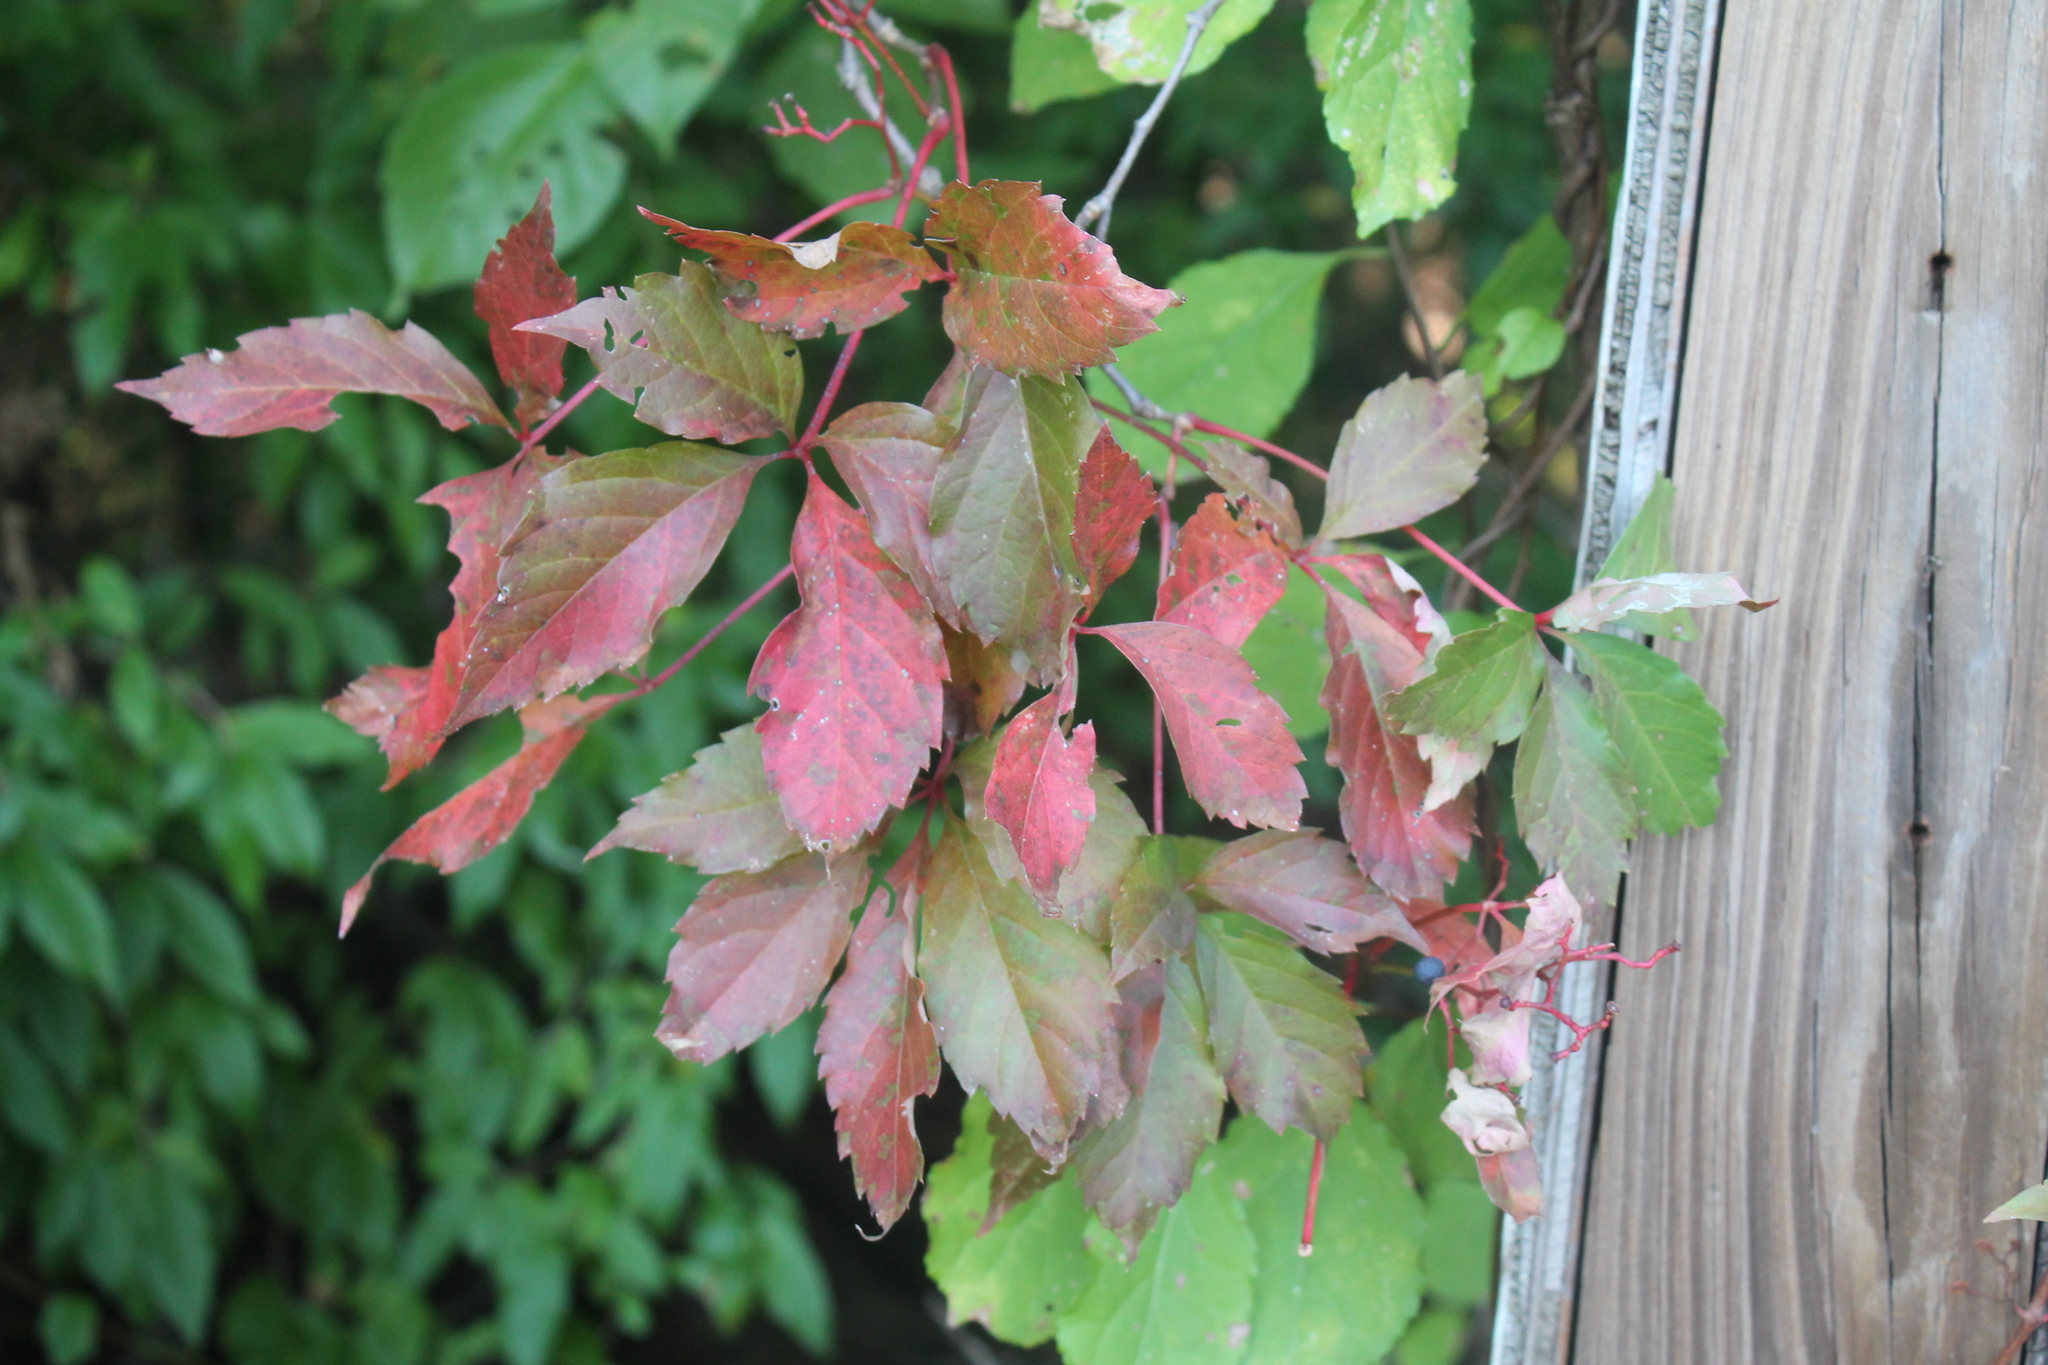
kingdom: Plantae
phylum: Tracheophyta
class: Magnoliopsida
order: Vitales
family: Vitaceae
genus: Parthenocissus
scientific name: Parthenocissus quinquefolia
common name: Virginia-creeper
